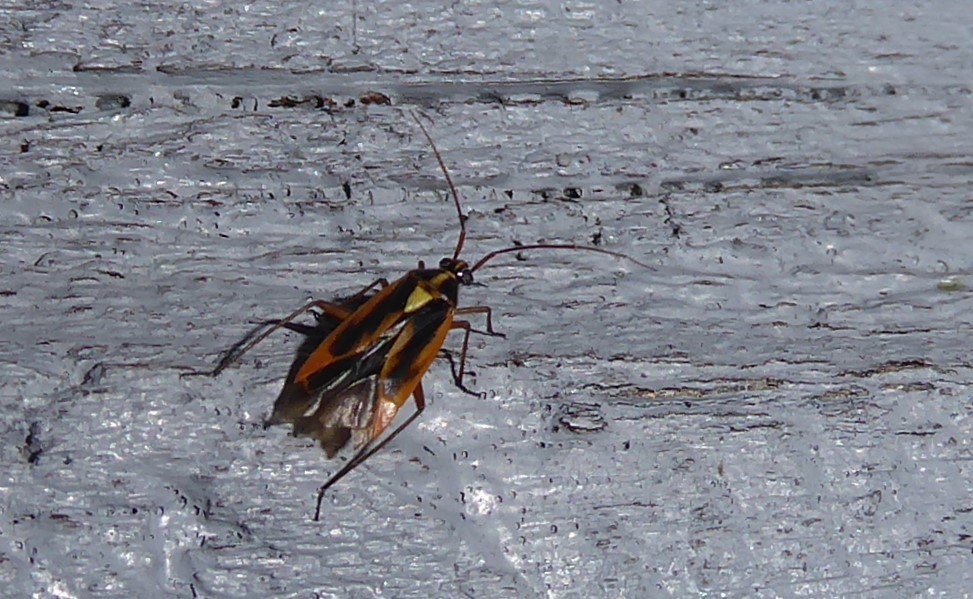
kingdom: Animalia
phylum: Arthropoda
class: Insecta
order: Hemiptera
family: Miridae
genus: Stenotus
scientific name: Stenotus binotatus
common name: Plant bug
